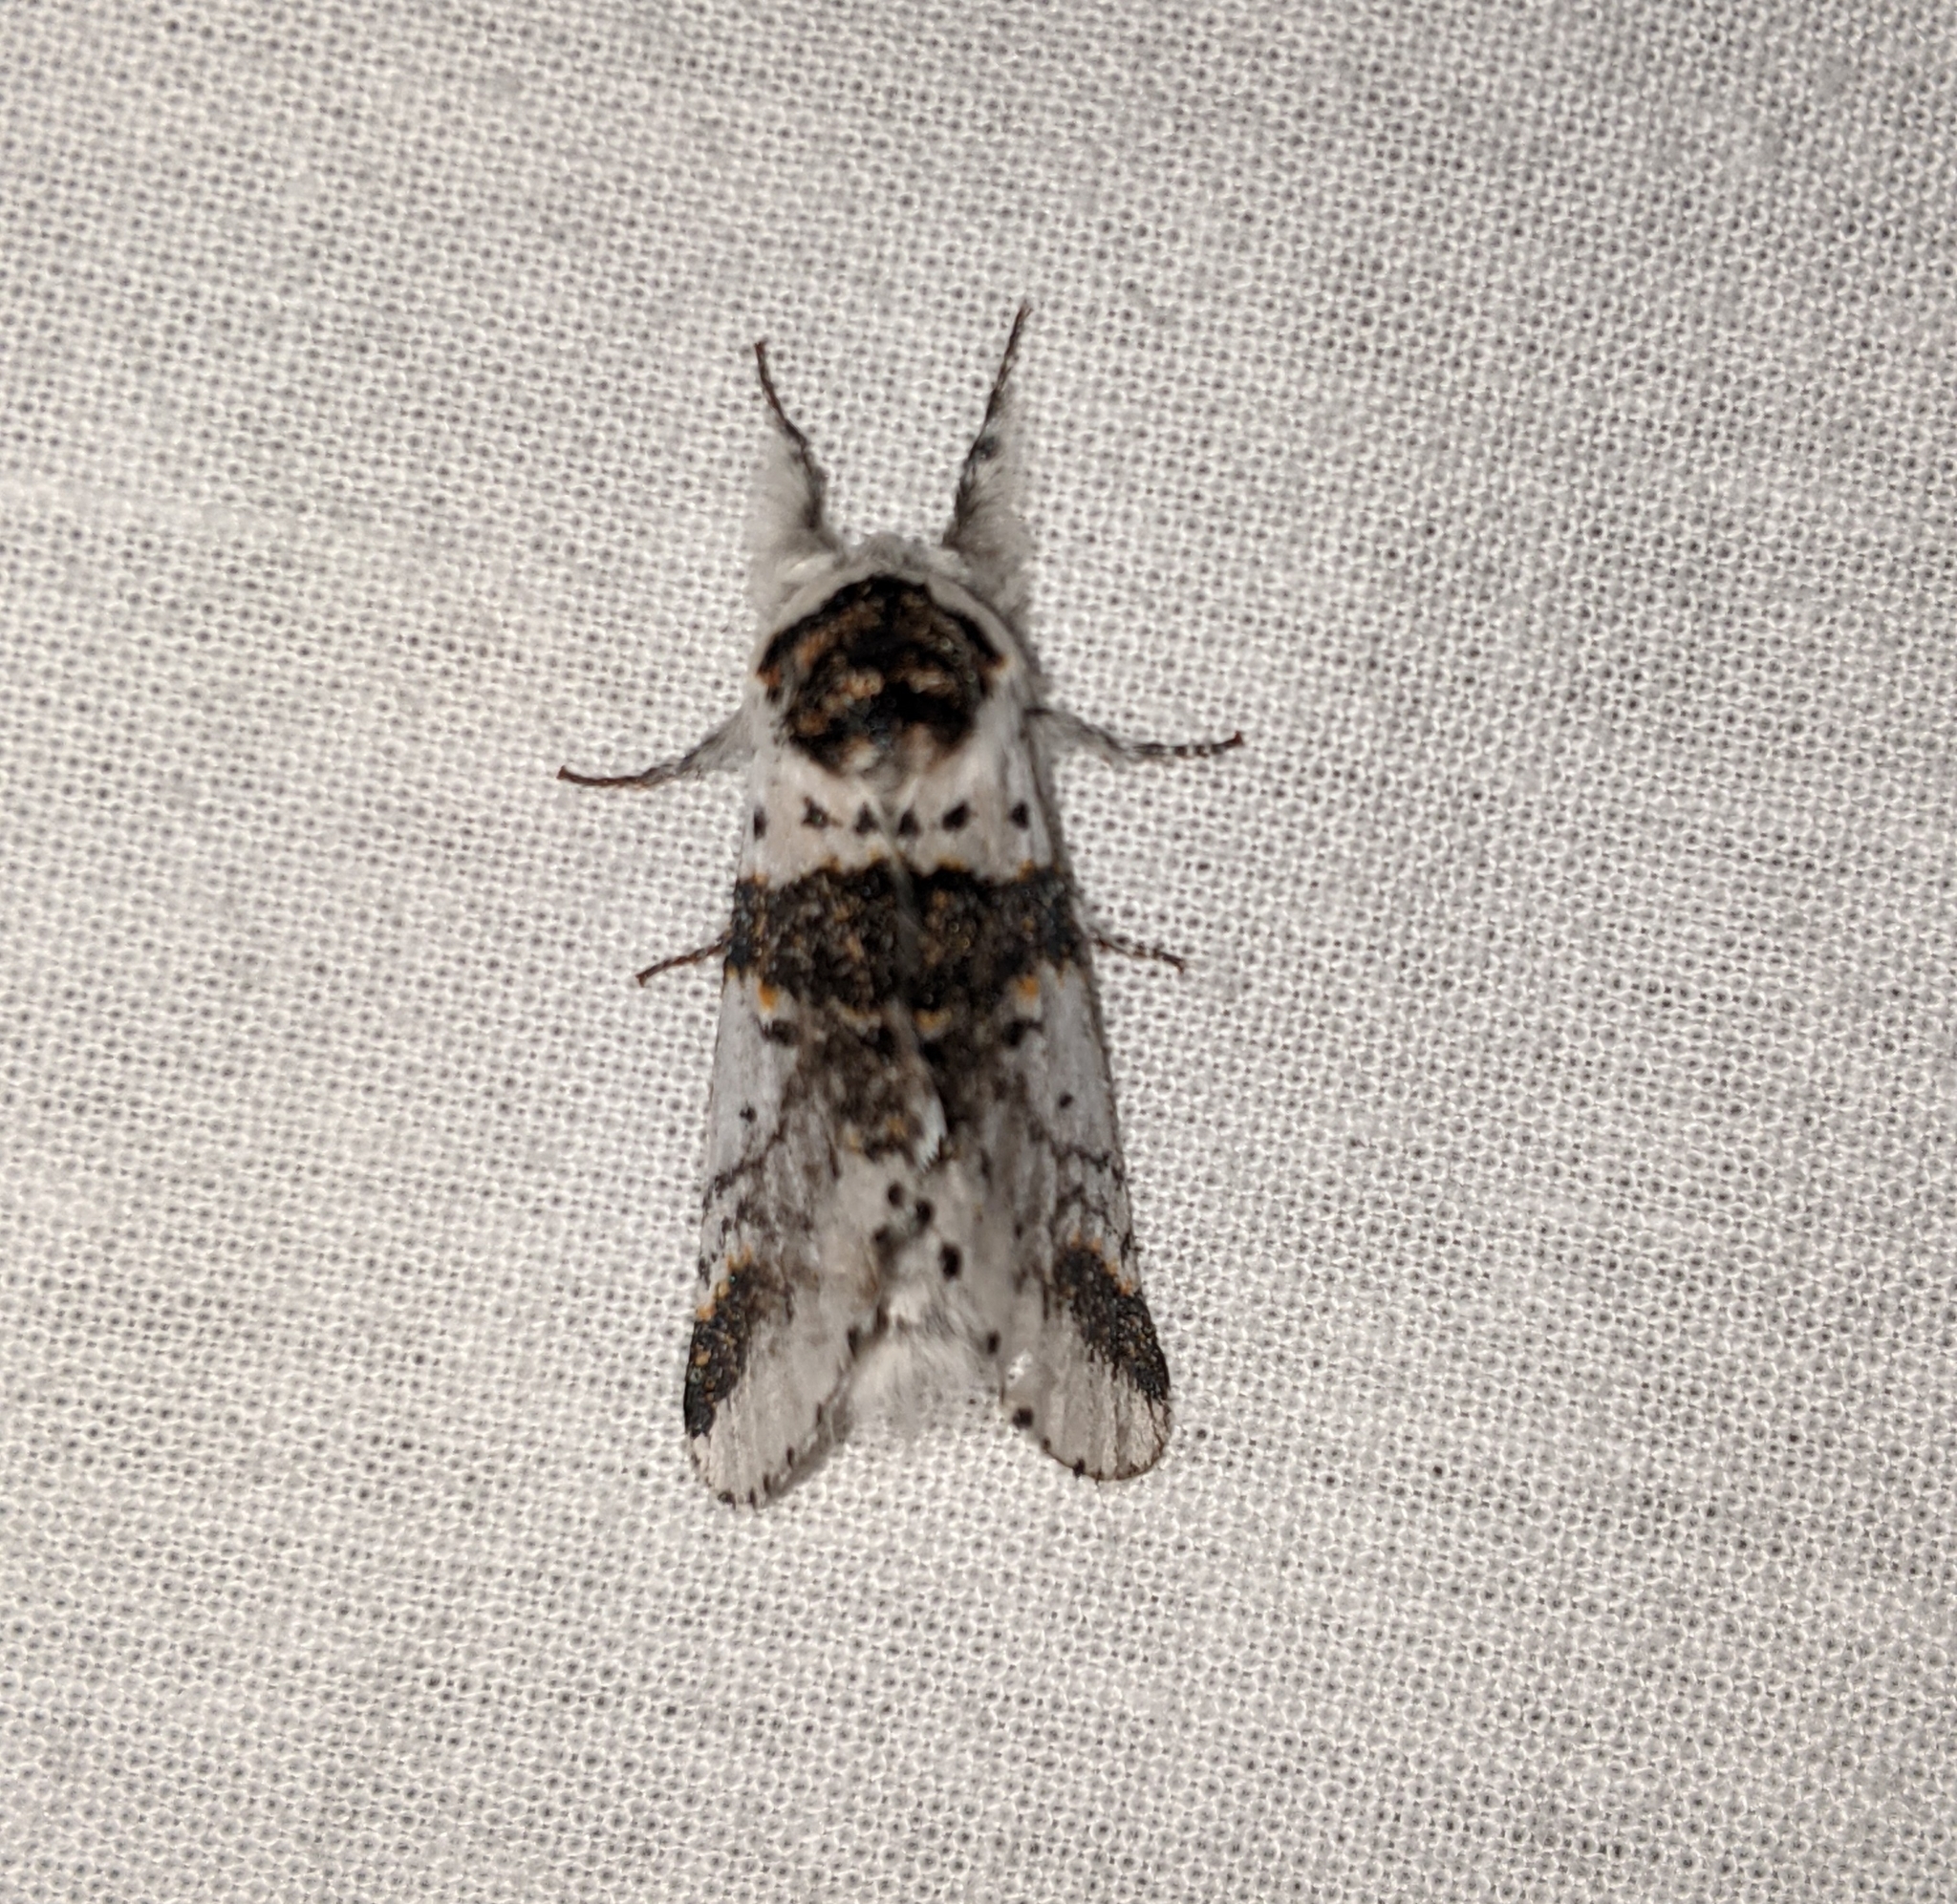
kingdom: Animalia
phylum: Arthropoda
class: Insecta
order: Lepidoptera
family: Notodontidae
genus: Furcula
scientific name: Furcula scolopendrina
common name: Zigzag furcula moth
